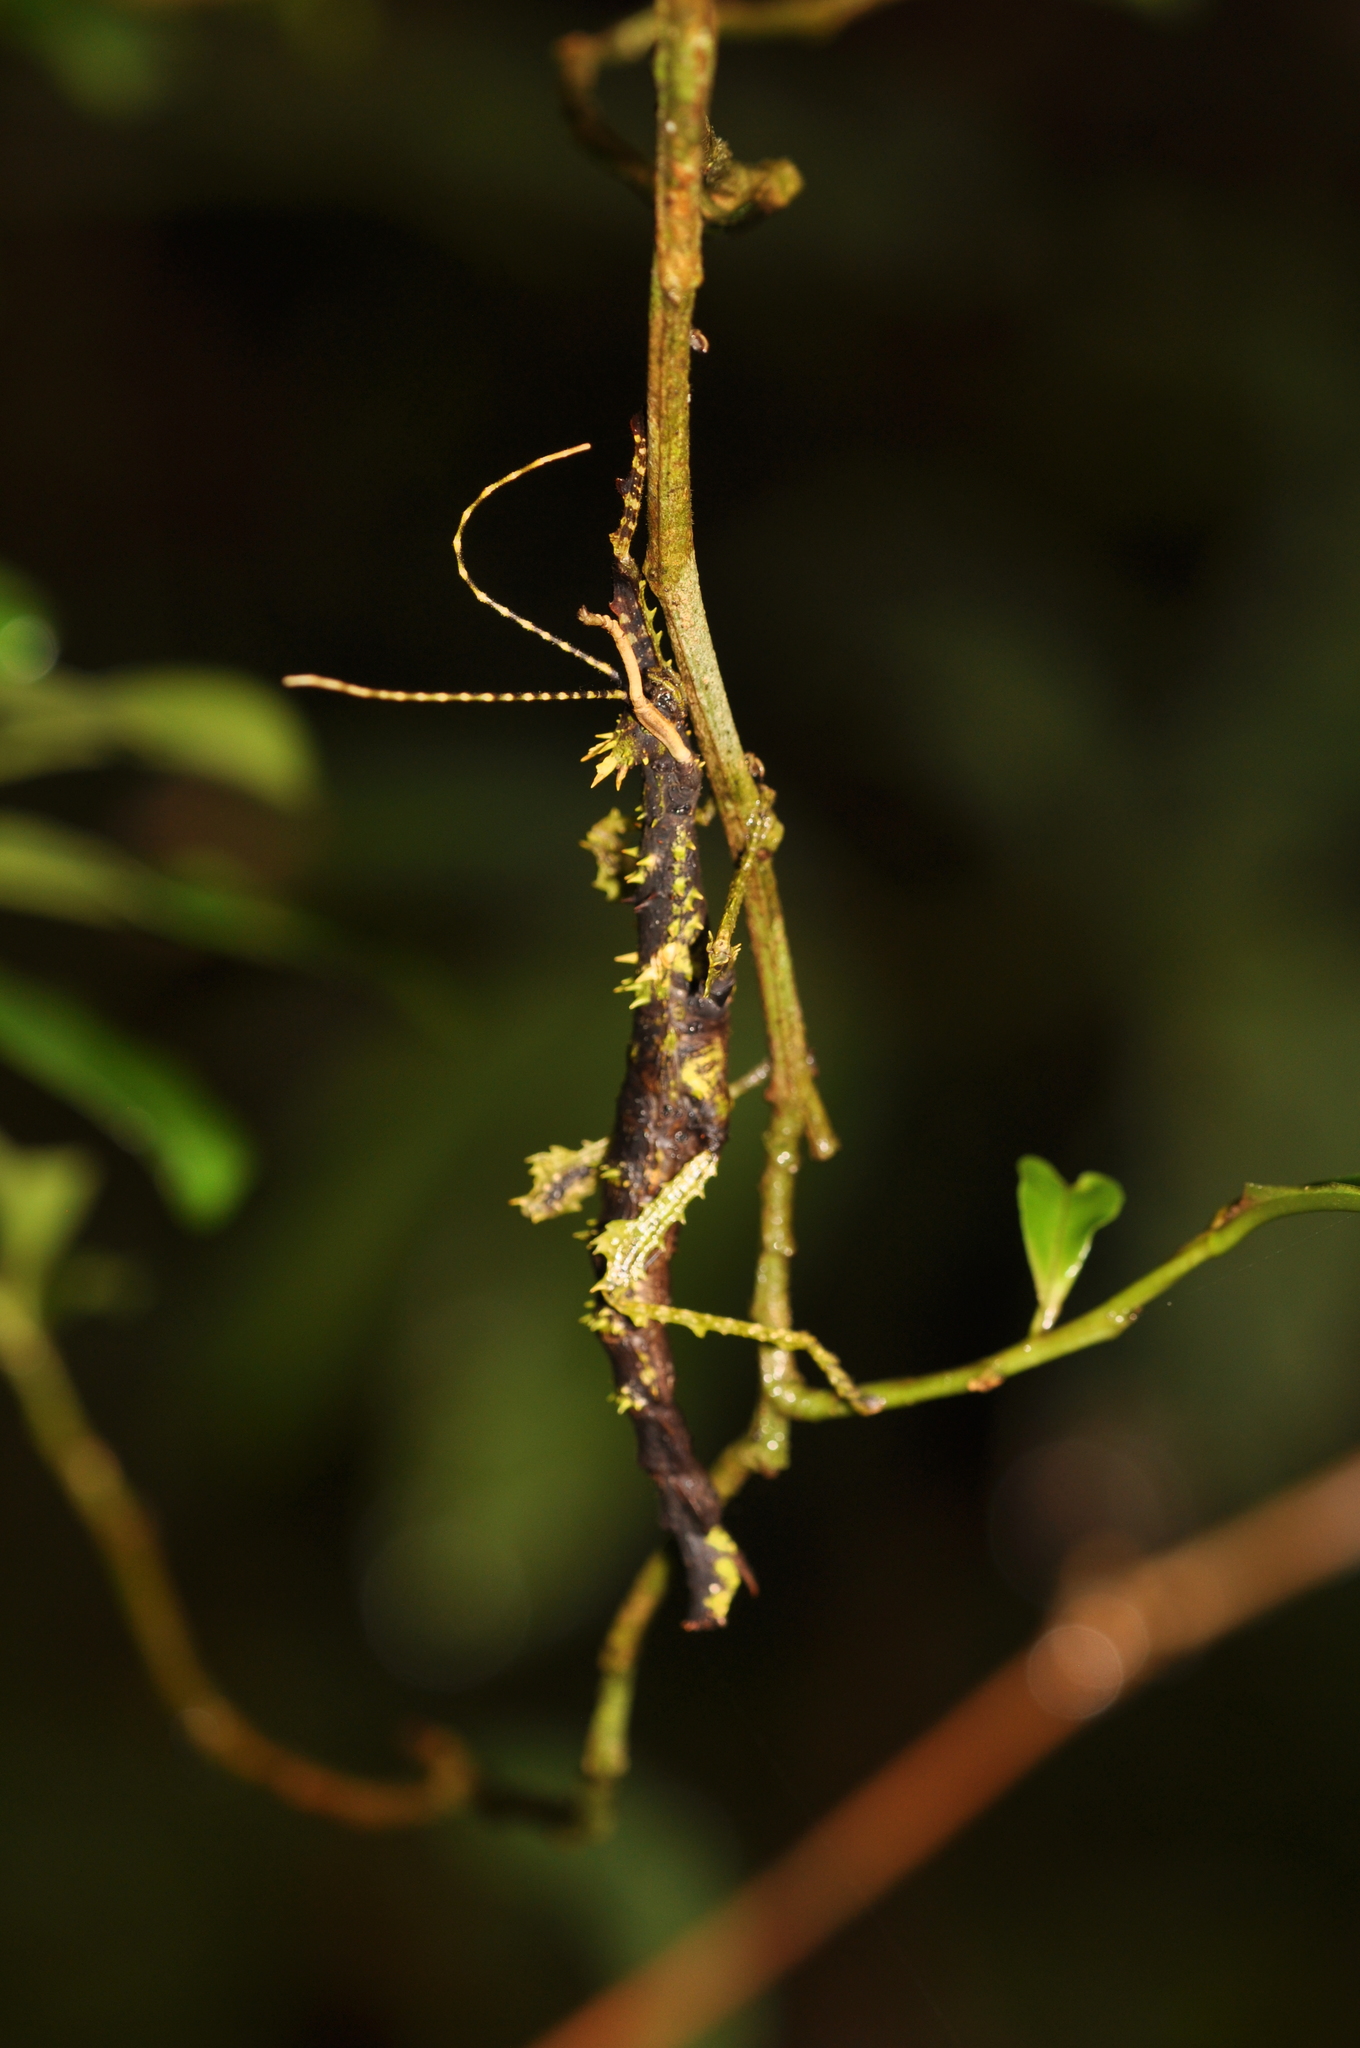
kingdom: Animalia
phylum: Arthropoda
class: Insecta
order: Phasmida
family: Anisacanthidae
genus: Parectatosoma
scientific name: Parectatosoma echinus
